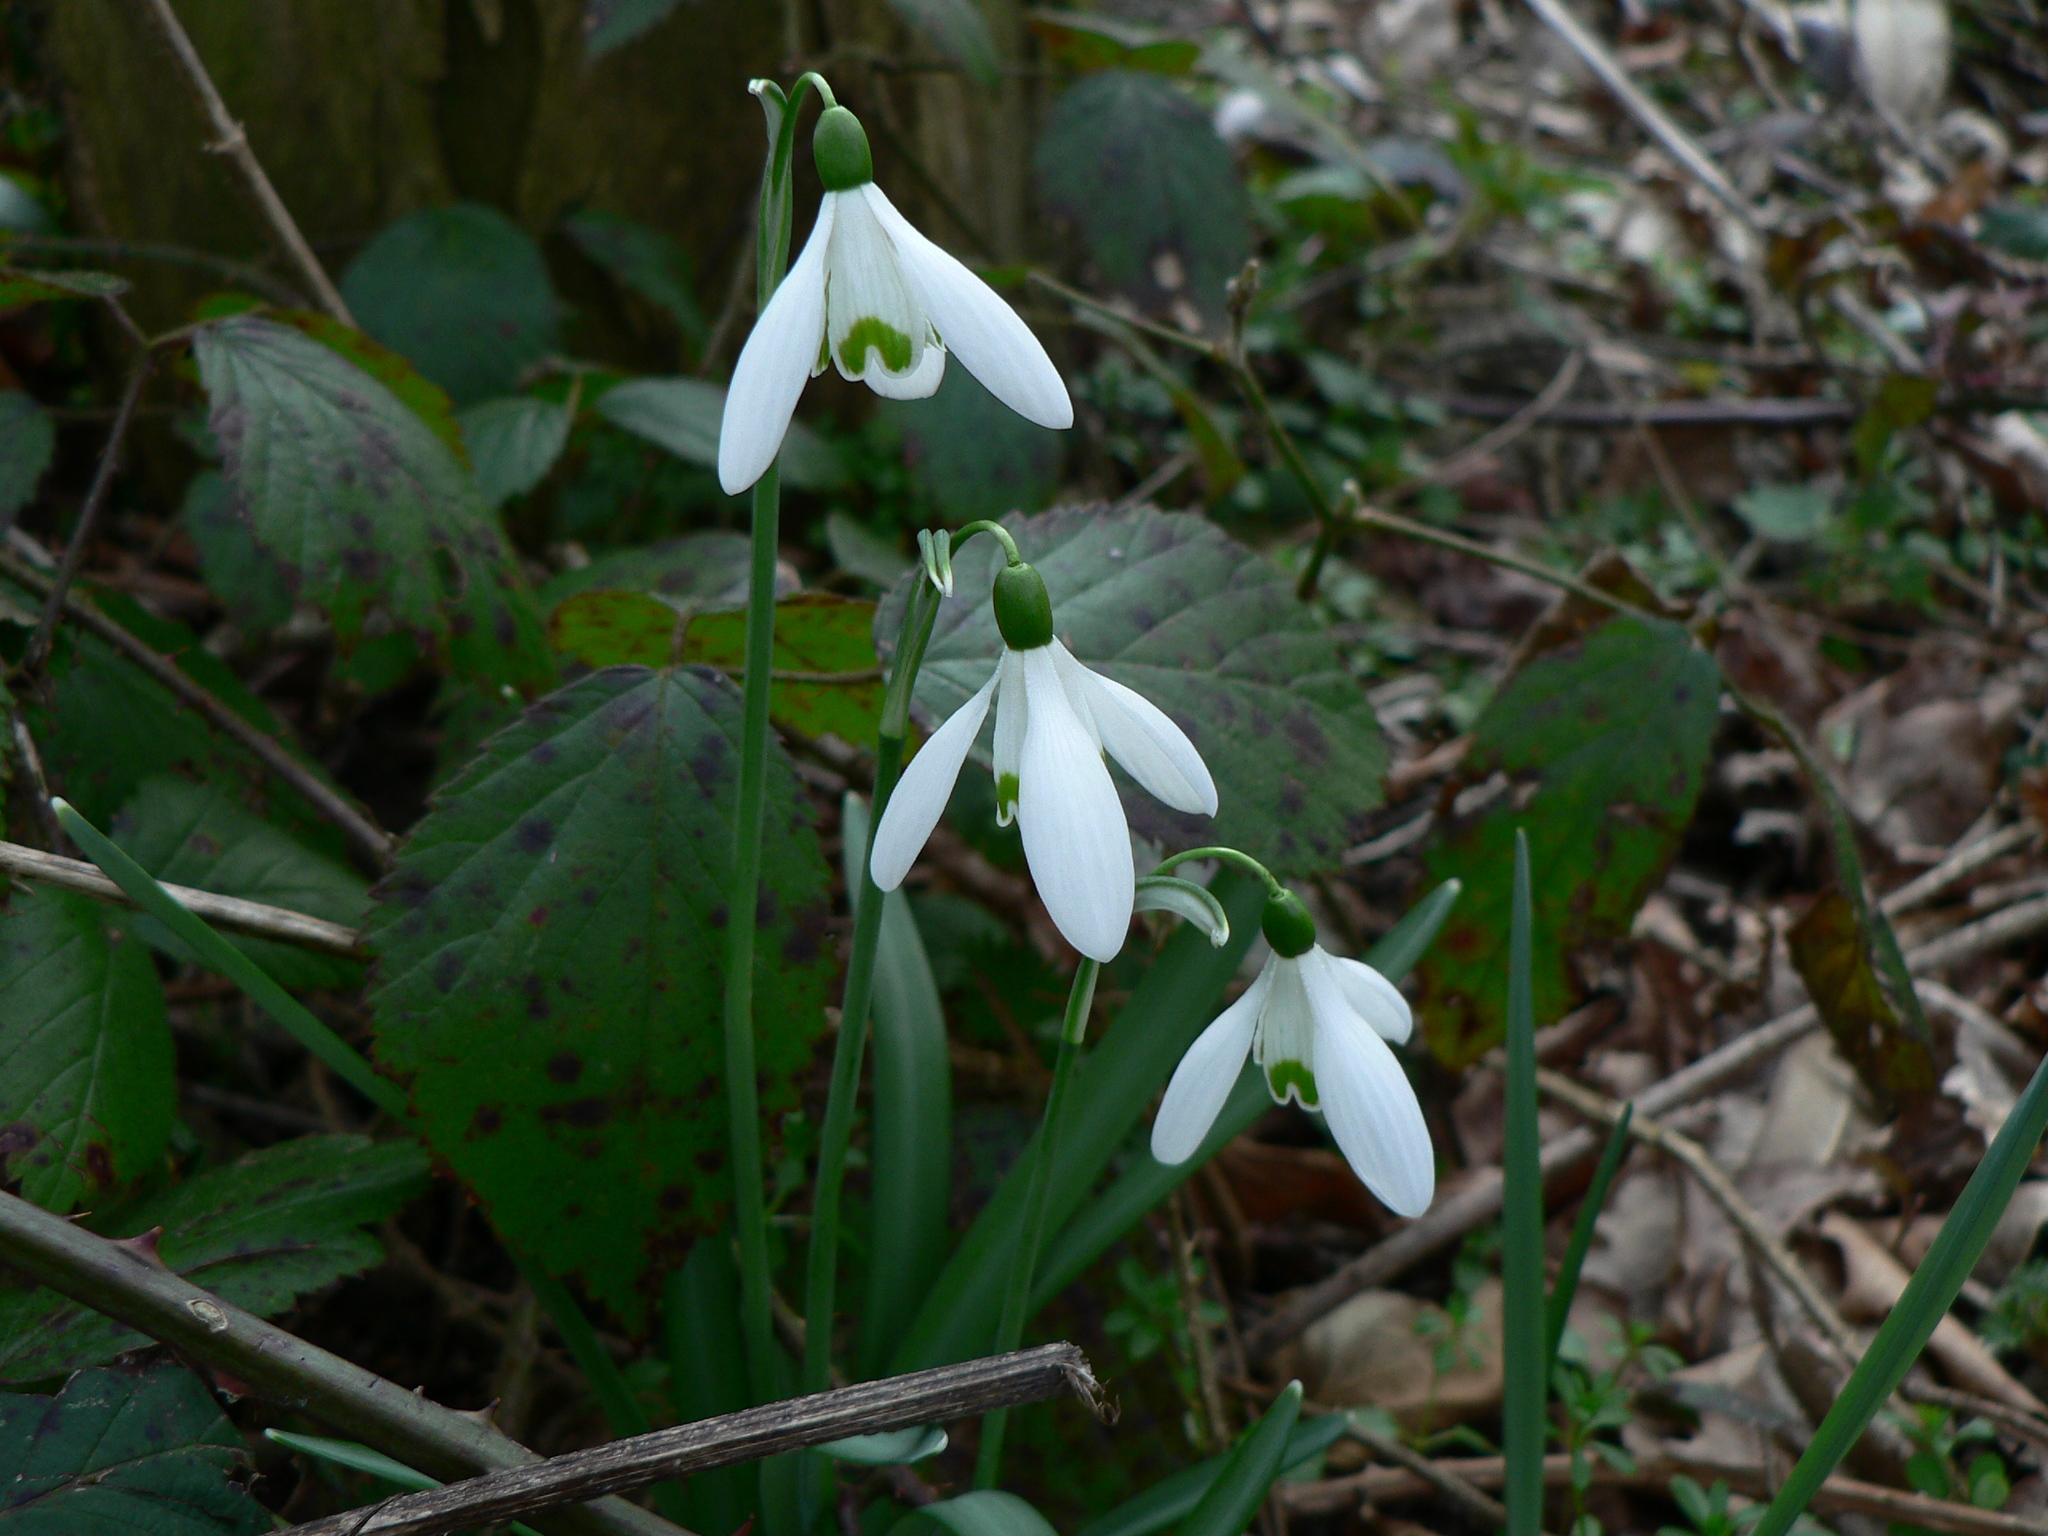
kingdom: Plantae
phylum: Tracheophyta
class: Liliopsida
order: Asparagales
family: Amaryllidaceae
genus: Galanthus
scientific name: Galanthus nivalis
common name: Snowdrop
